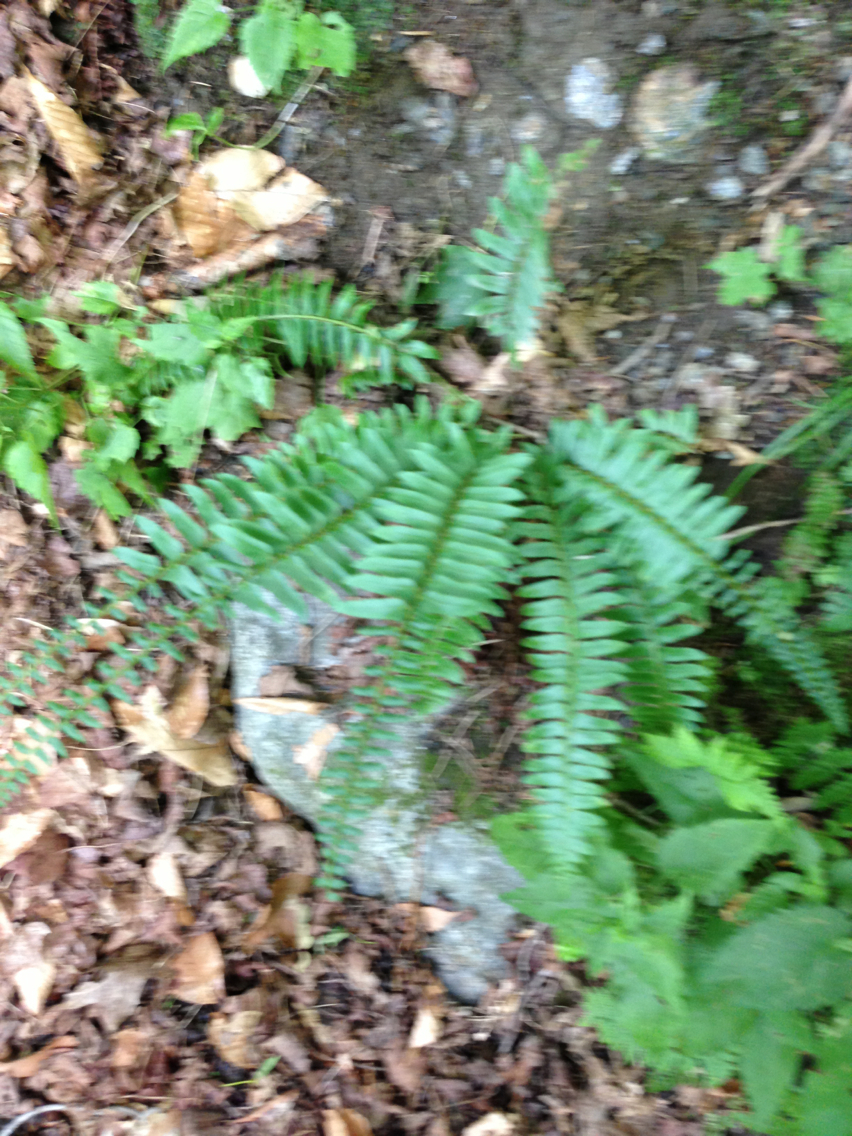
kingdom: Plantae
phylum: Tracheophyta
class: Polypodiopsida
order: Polypodiales
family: Dryopteridaceae
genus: Polystichum
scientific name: Polystichum acrostichoides
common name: Christmas fern
